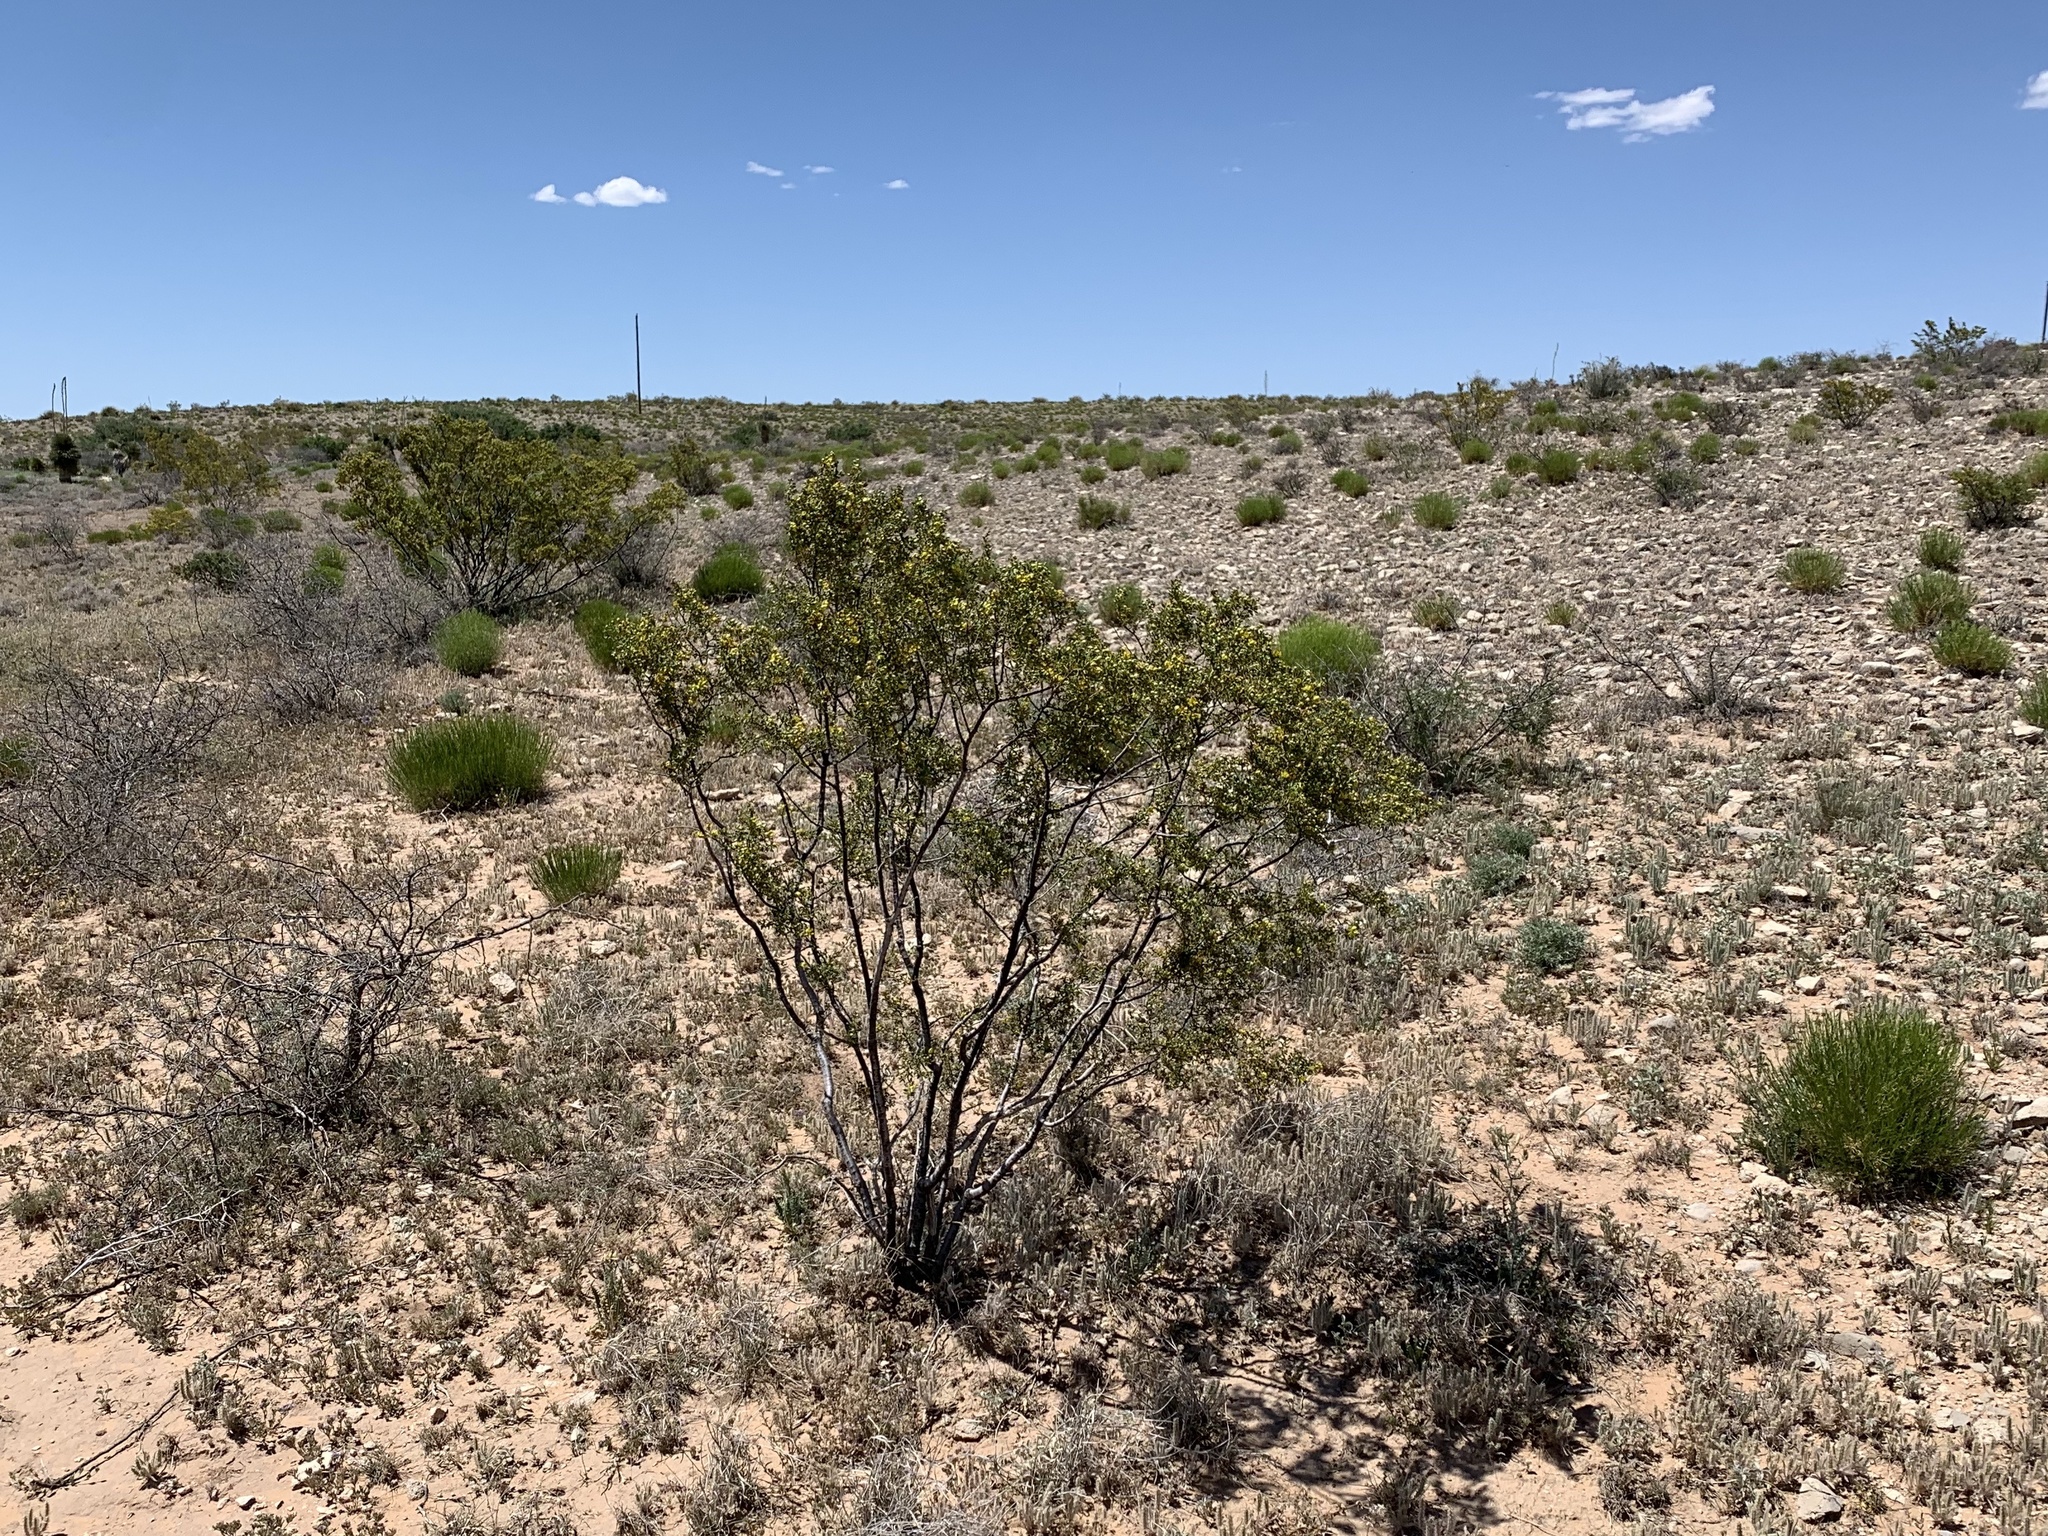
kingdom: Plantae
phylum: Tracheophyta
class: Magnoliopsida
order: Zygophyllales
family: Zygophyllaceae
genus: Larrea
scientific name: Larrea tridentata
